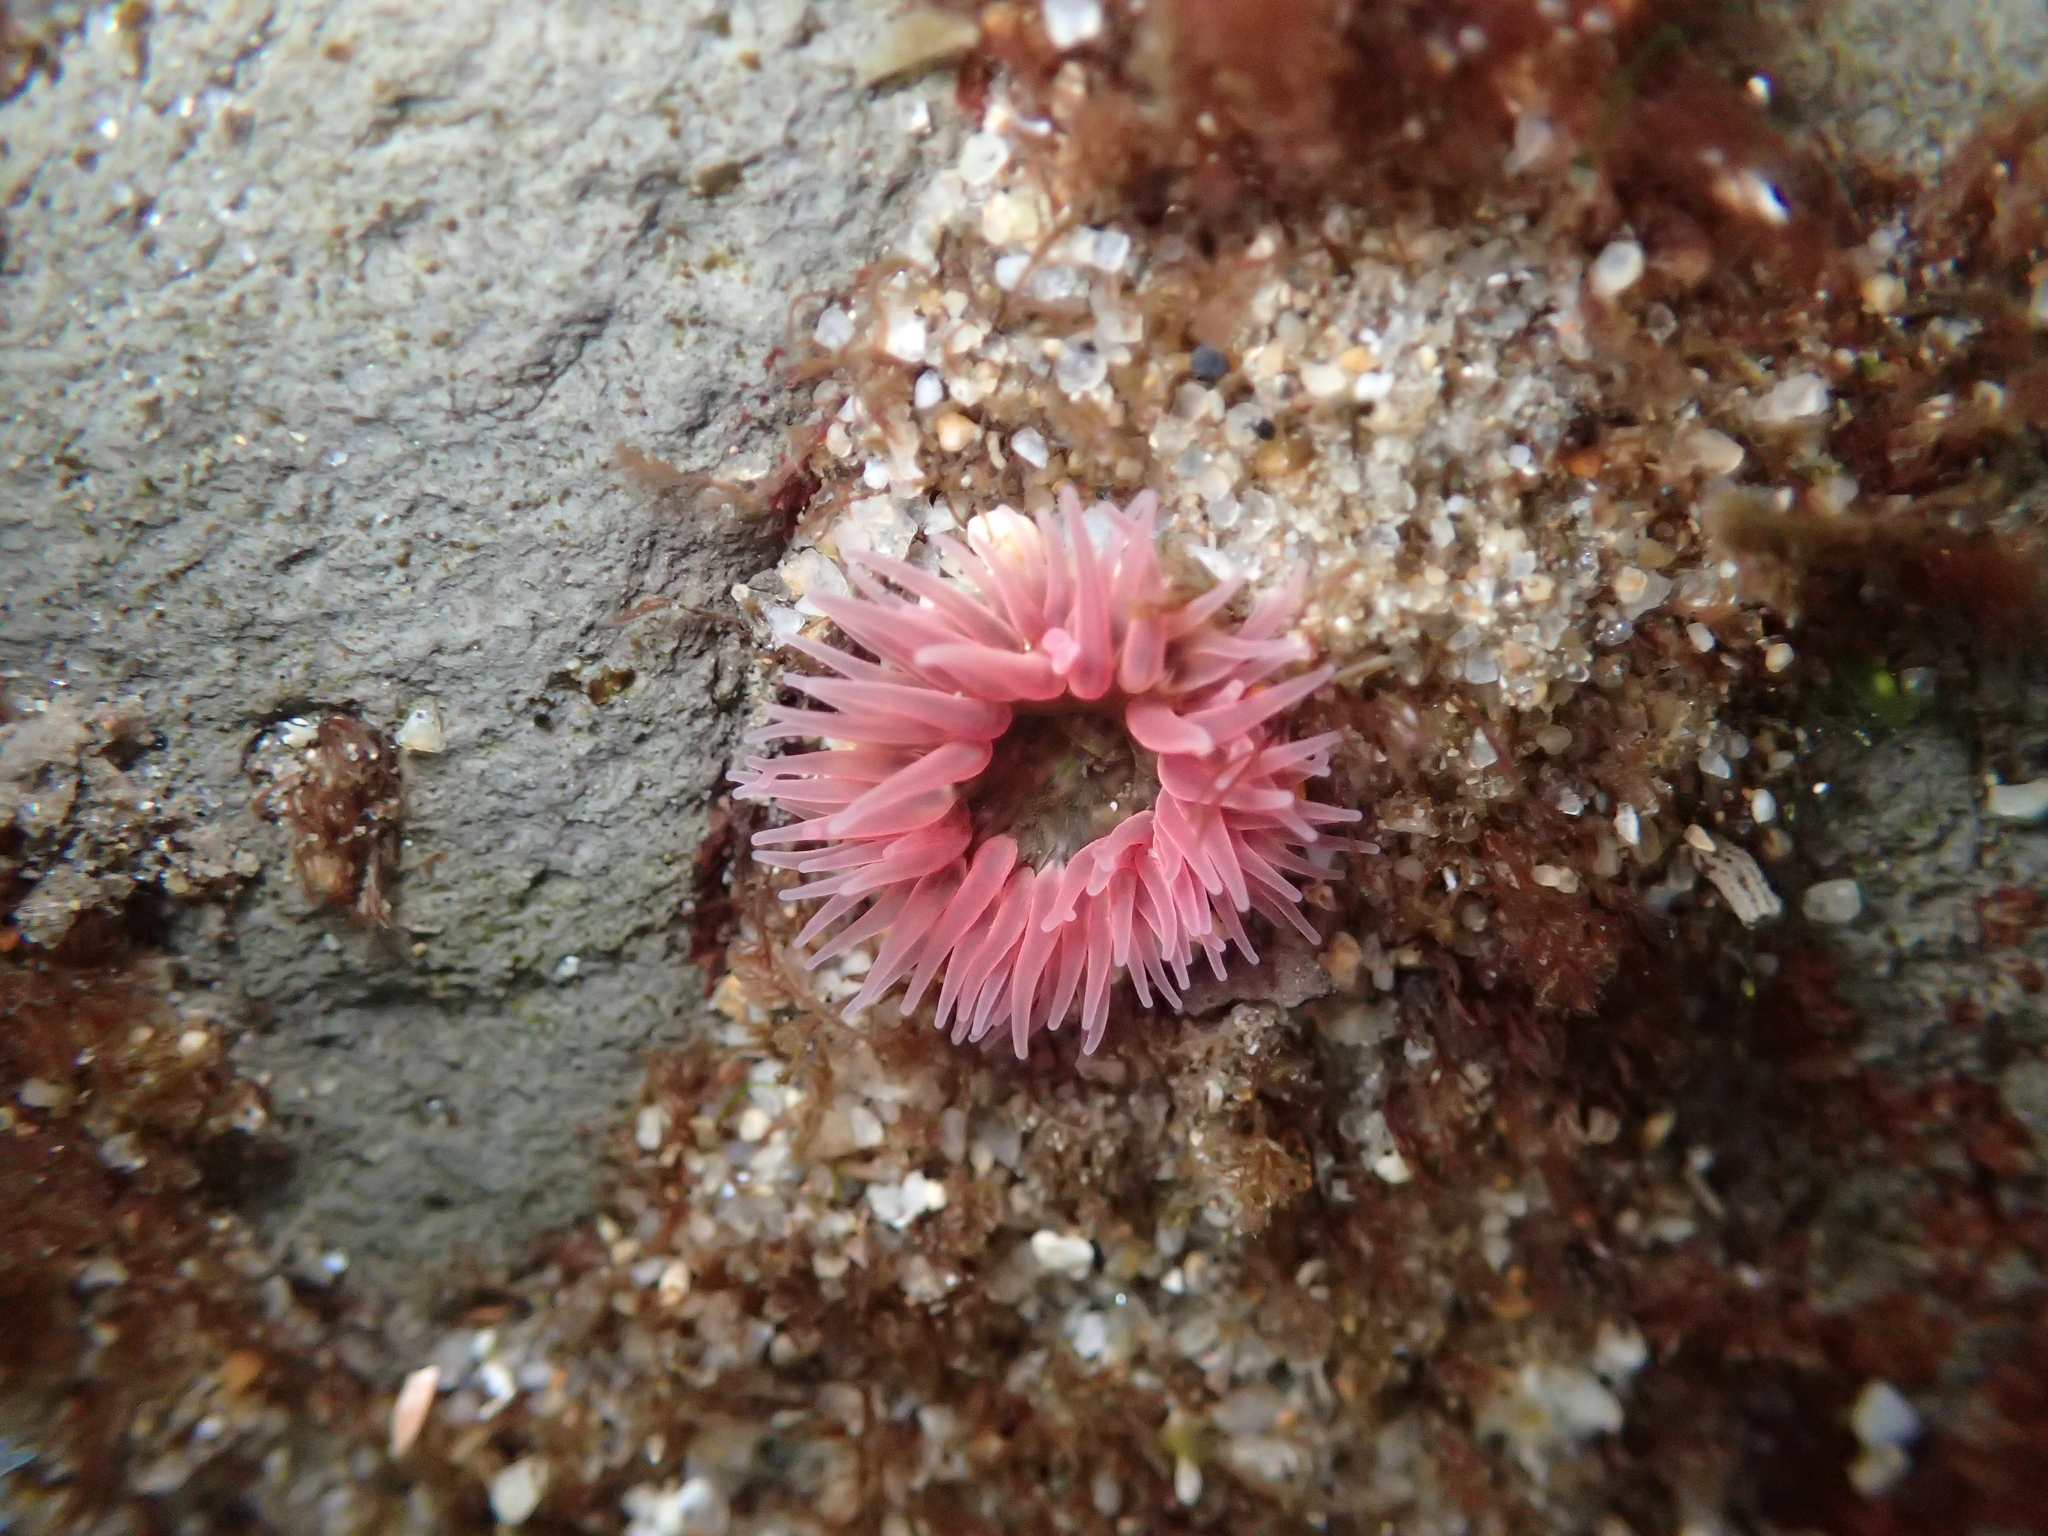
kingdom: Animalia
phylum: Cnidaria
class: Anthozoa
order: Actiniaria
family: Actiniidae
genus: Anthopleura
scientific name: Anthopleura artemisia
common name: Buried sea anemone
